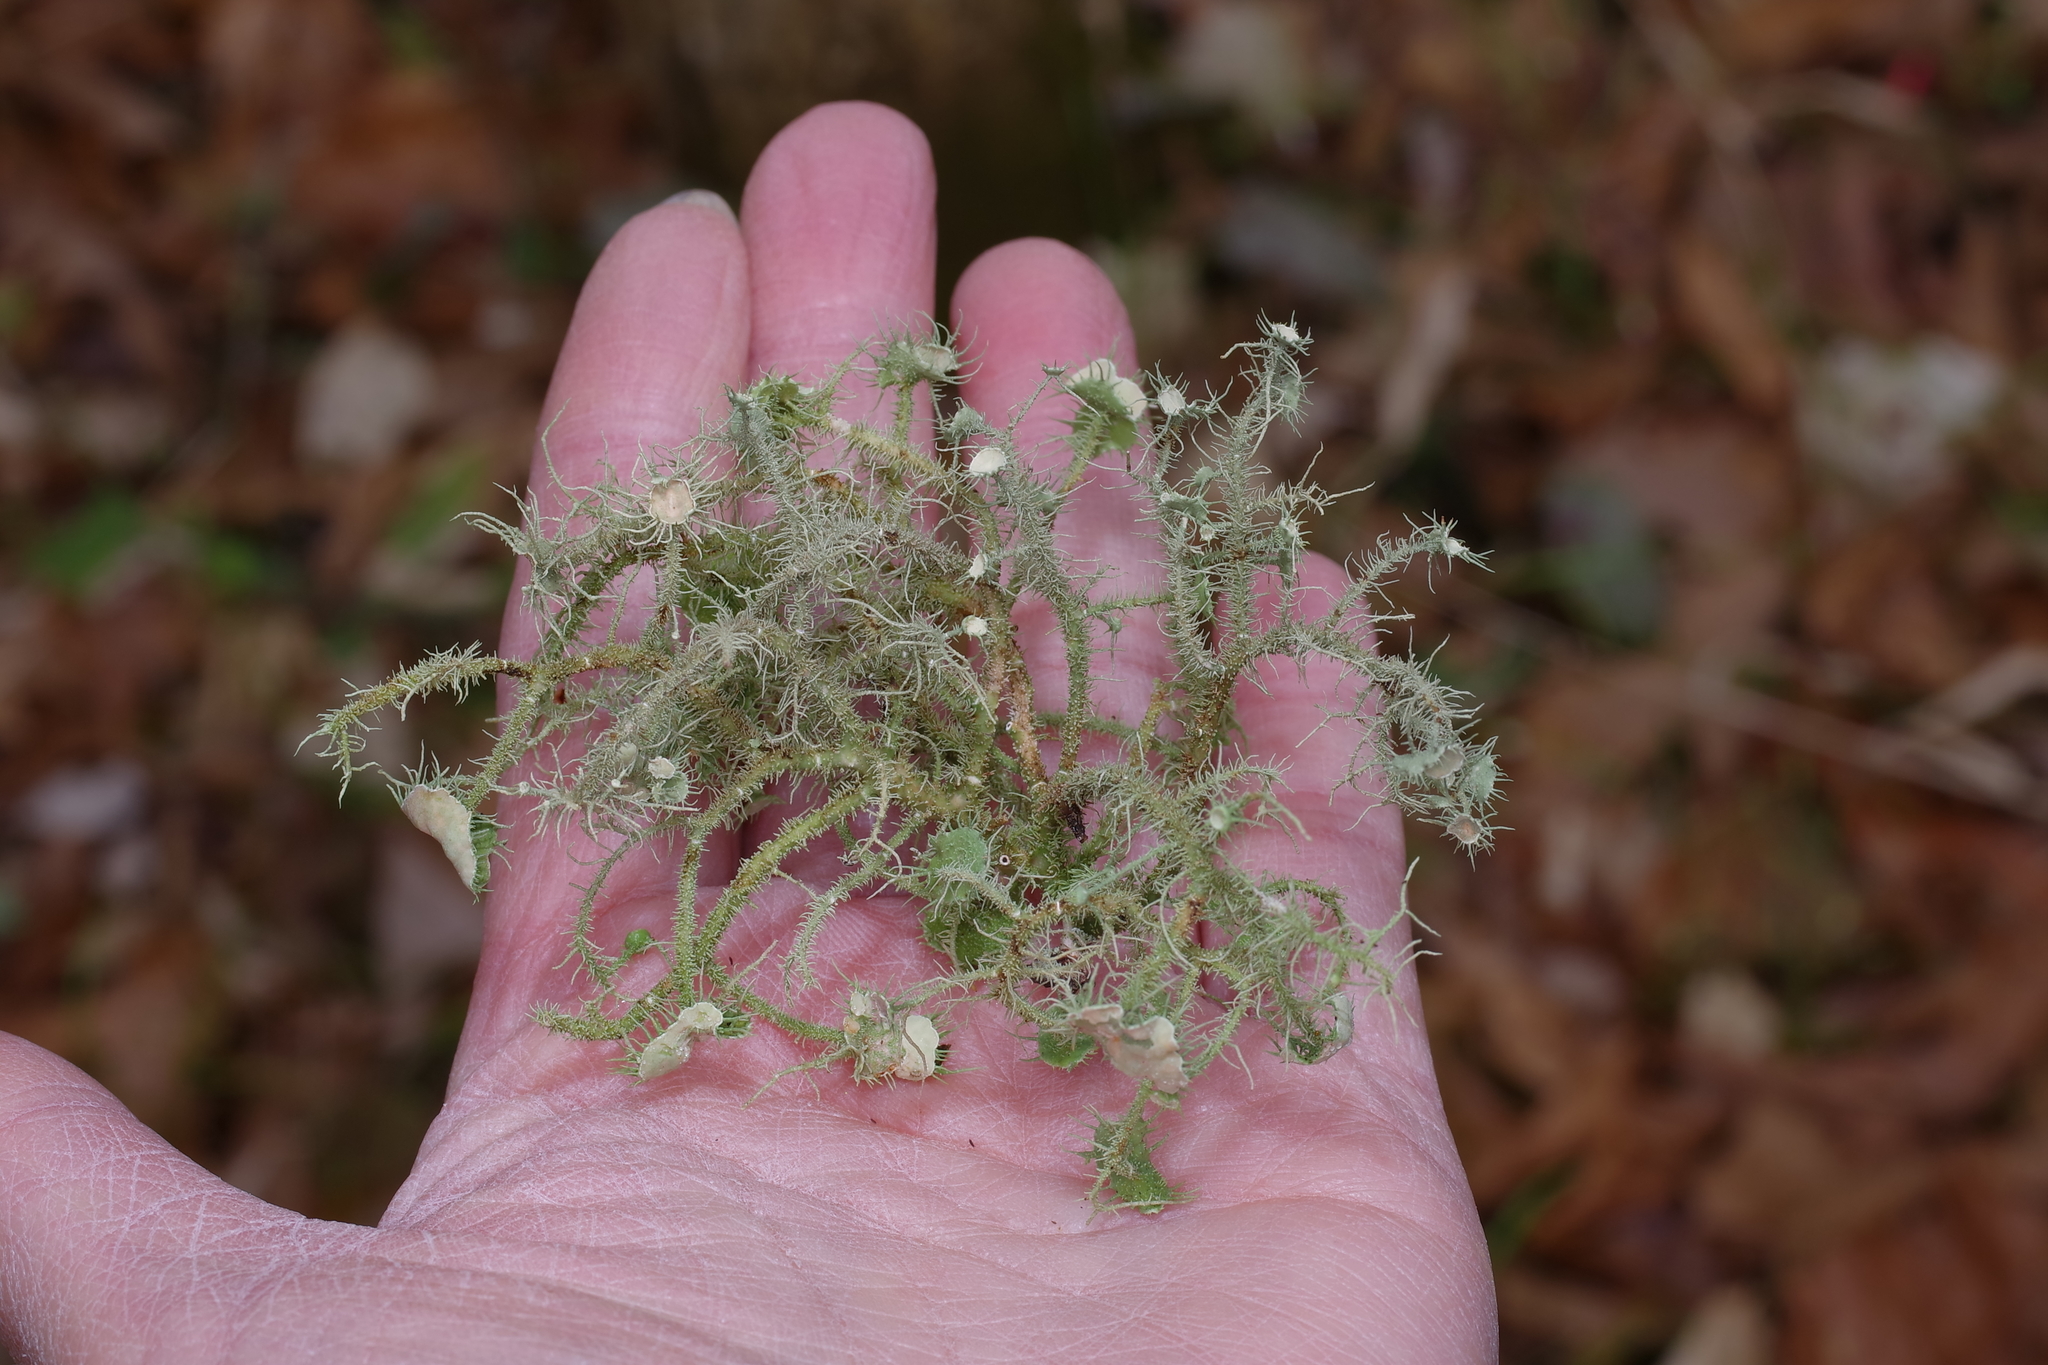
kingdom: Fungi
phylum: Ascomycota
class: Lecanoromycetes
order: Lecanorales
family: Parmeliaceae
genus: Usnea
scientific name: Usnea strigosa
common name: Bushy beard lichen
